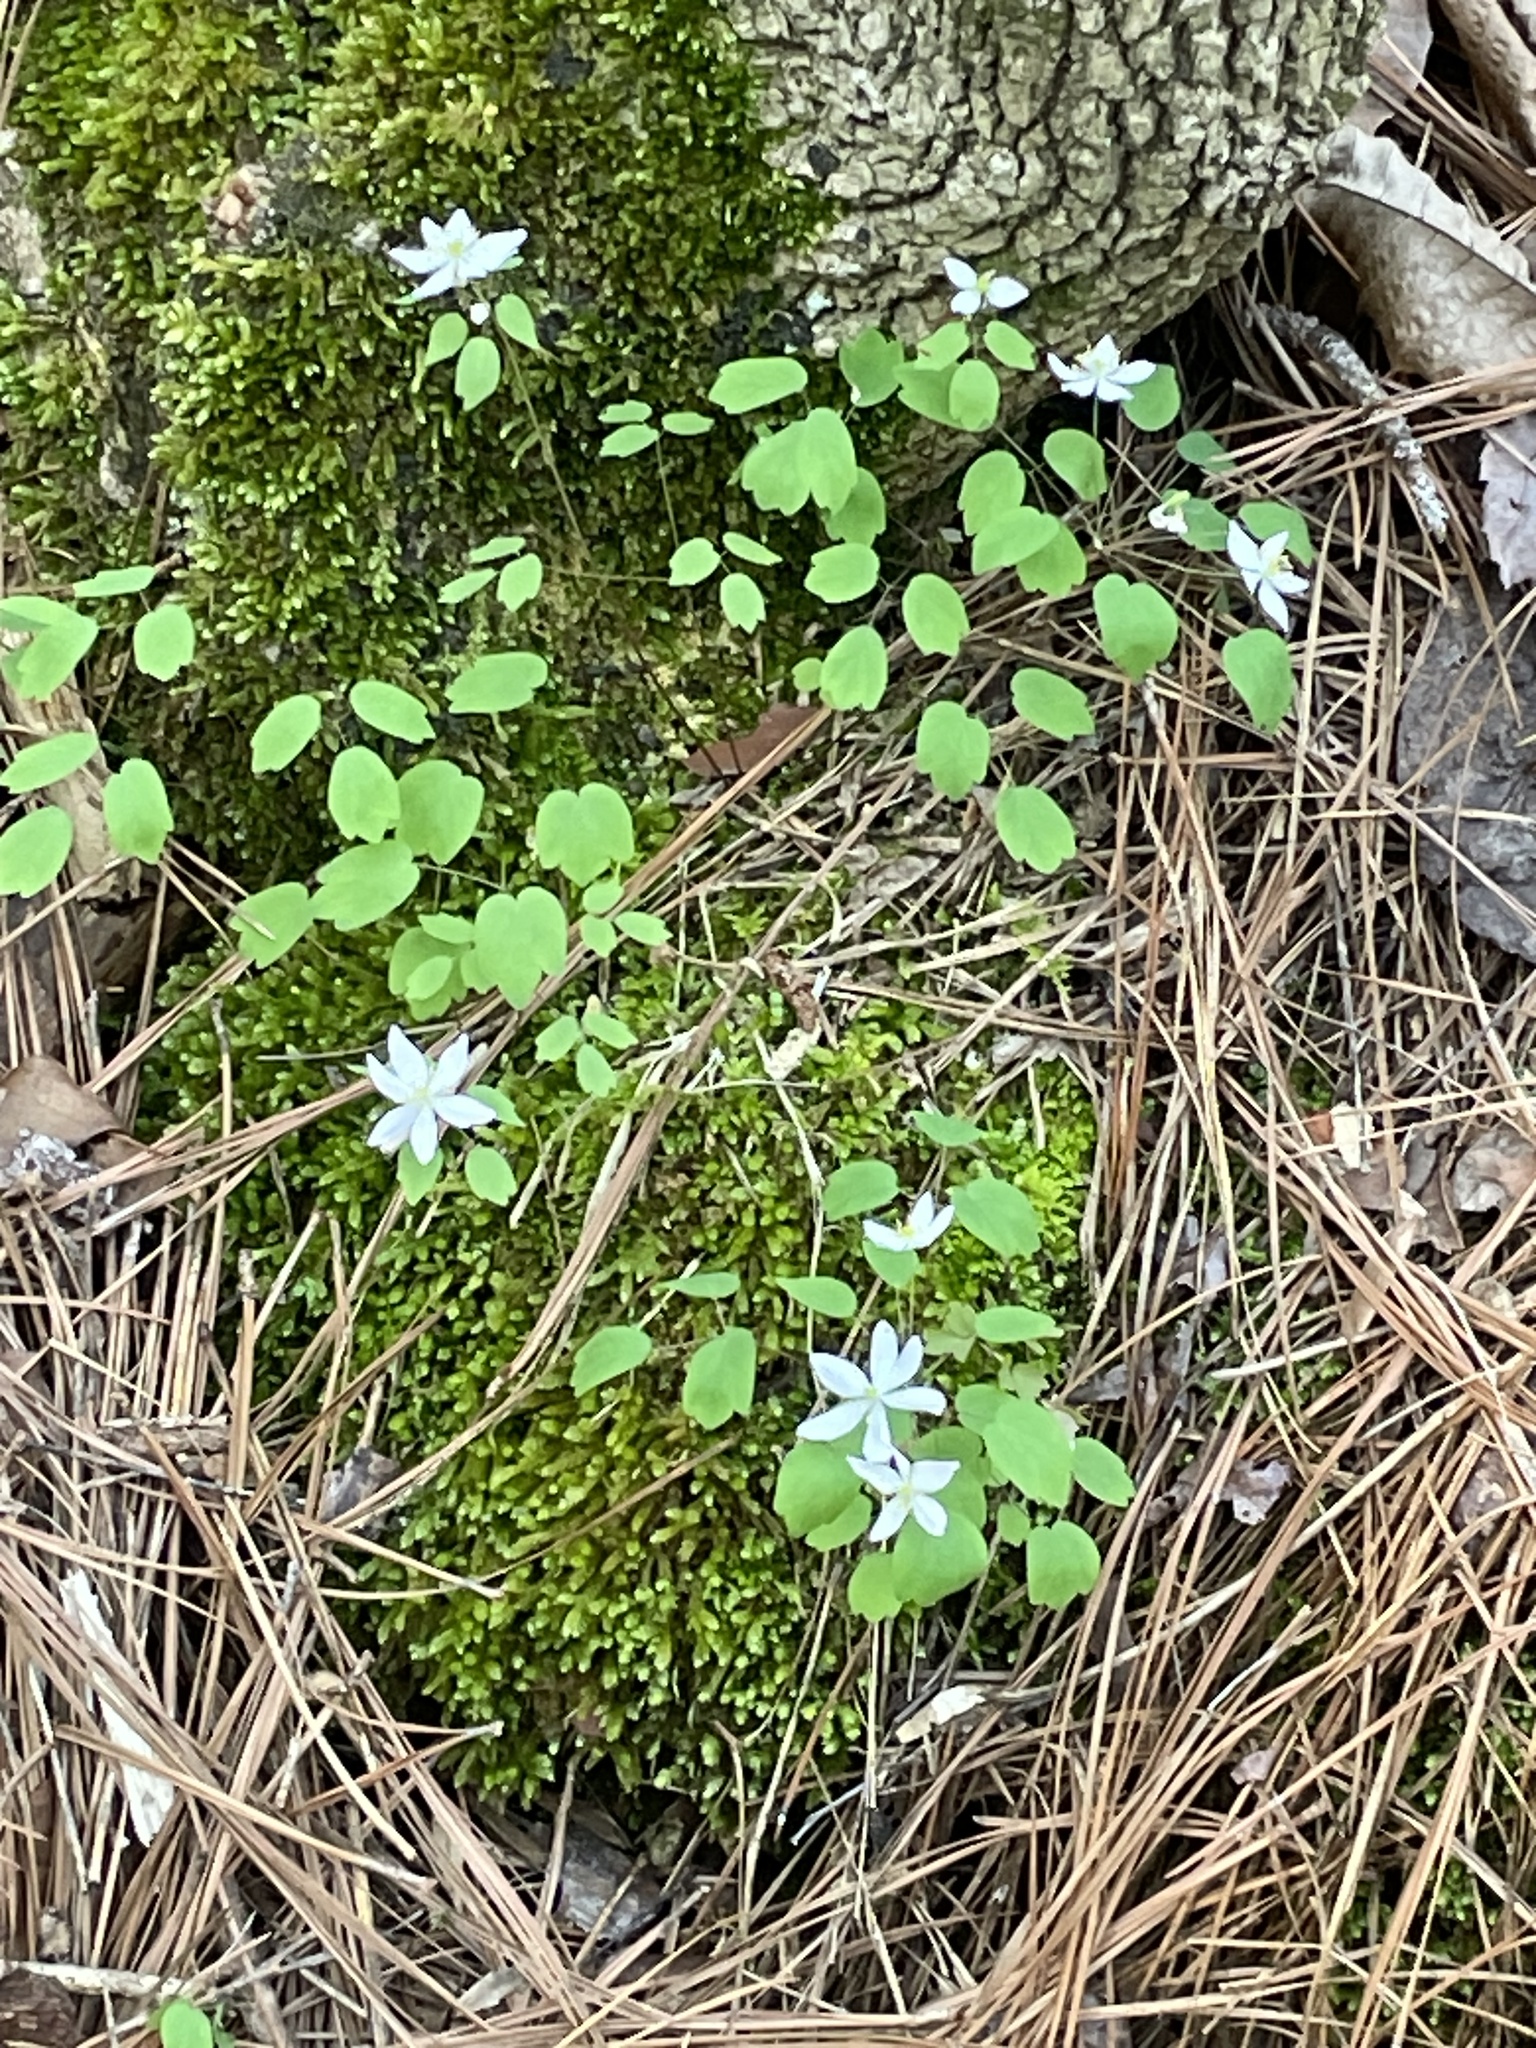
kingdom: Plantae
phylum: Tracheophyta
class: Magnoliopsida
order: Ranunculales
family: Ranunculaceae
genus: Thalictrum
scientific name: Thalictrum thalictroides
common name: Rue-anemone
